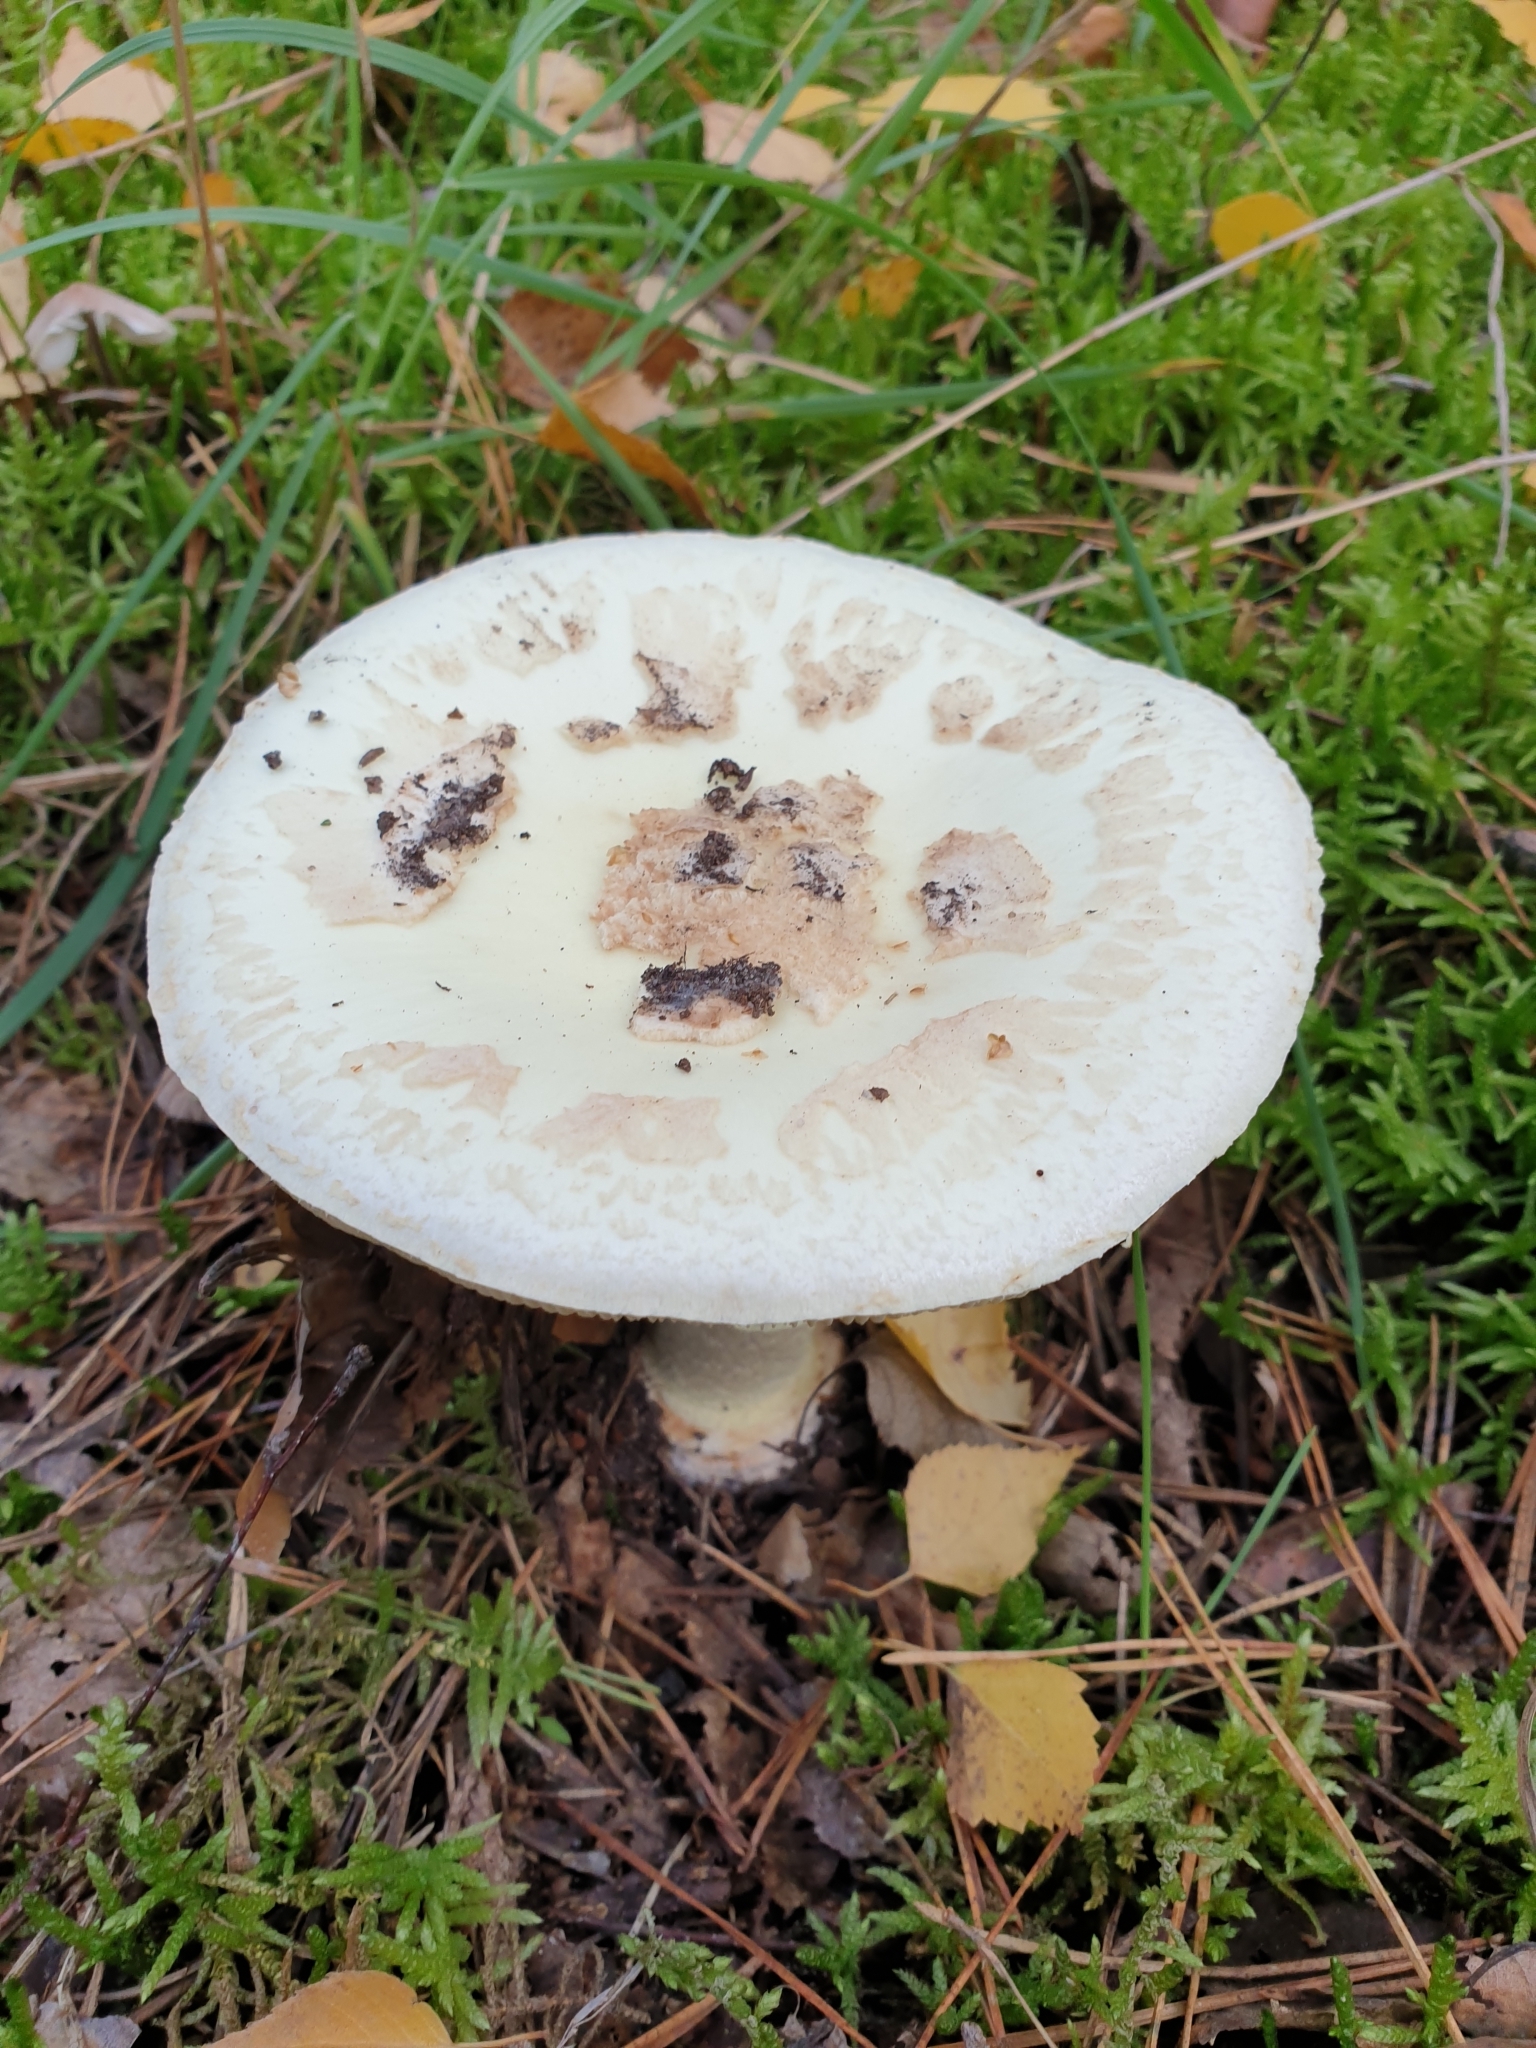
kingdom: Fungi
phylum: Basidiomycota
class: Agaricomycetes
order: Agaricales
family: Amanitaceae
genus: Amanita
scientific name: Amanita citrina
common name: False death-cap
